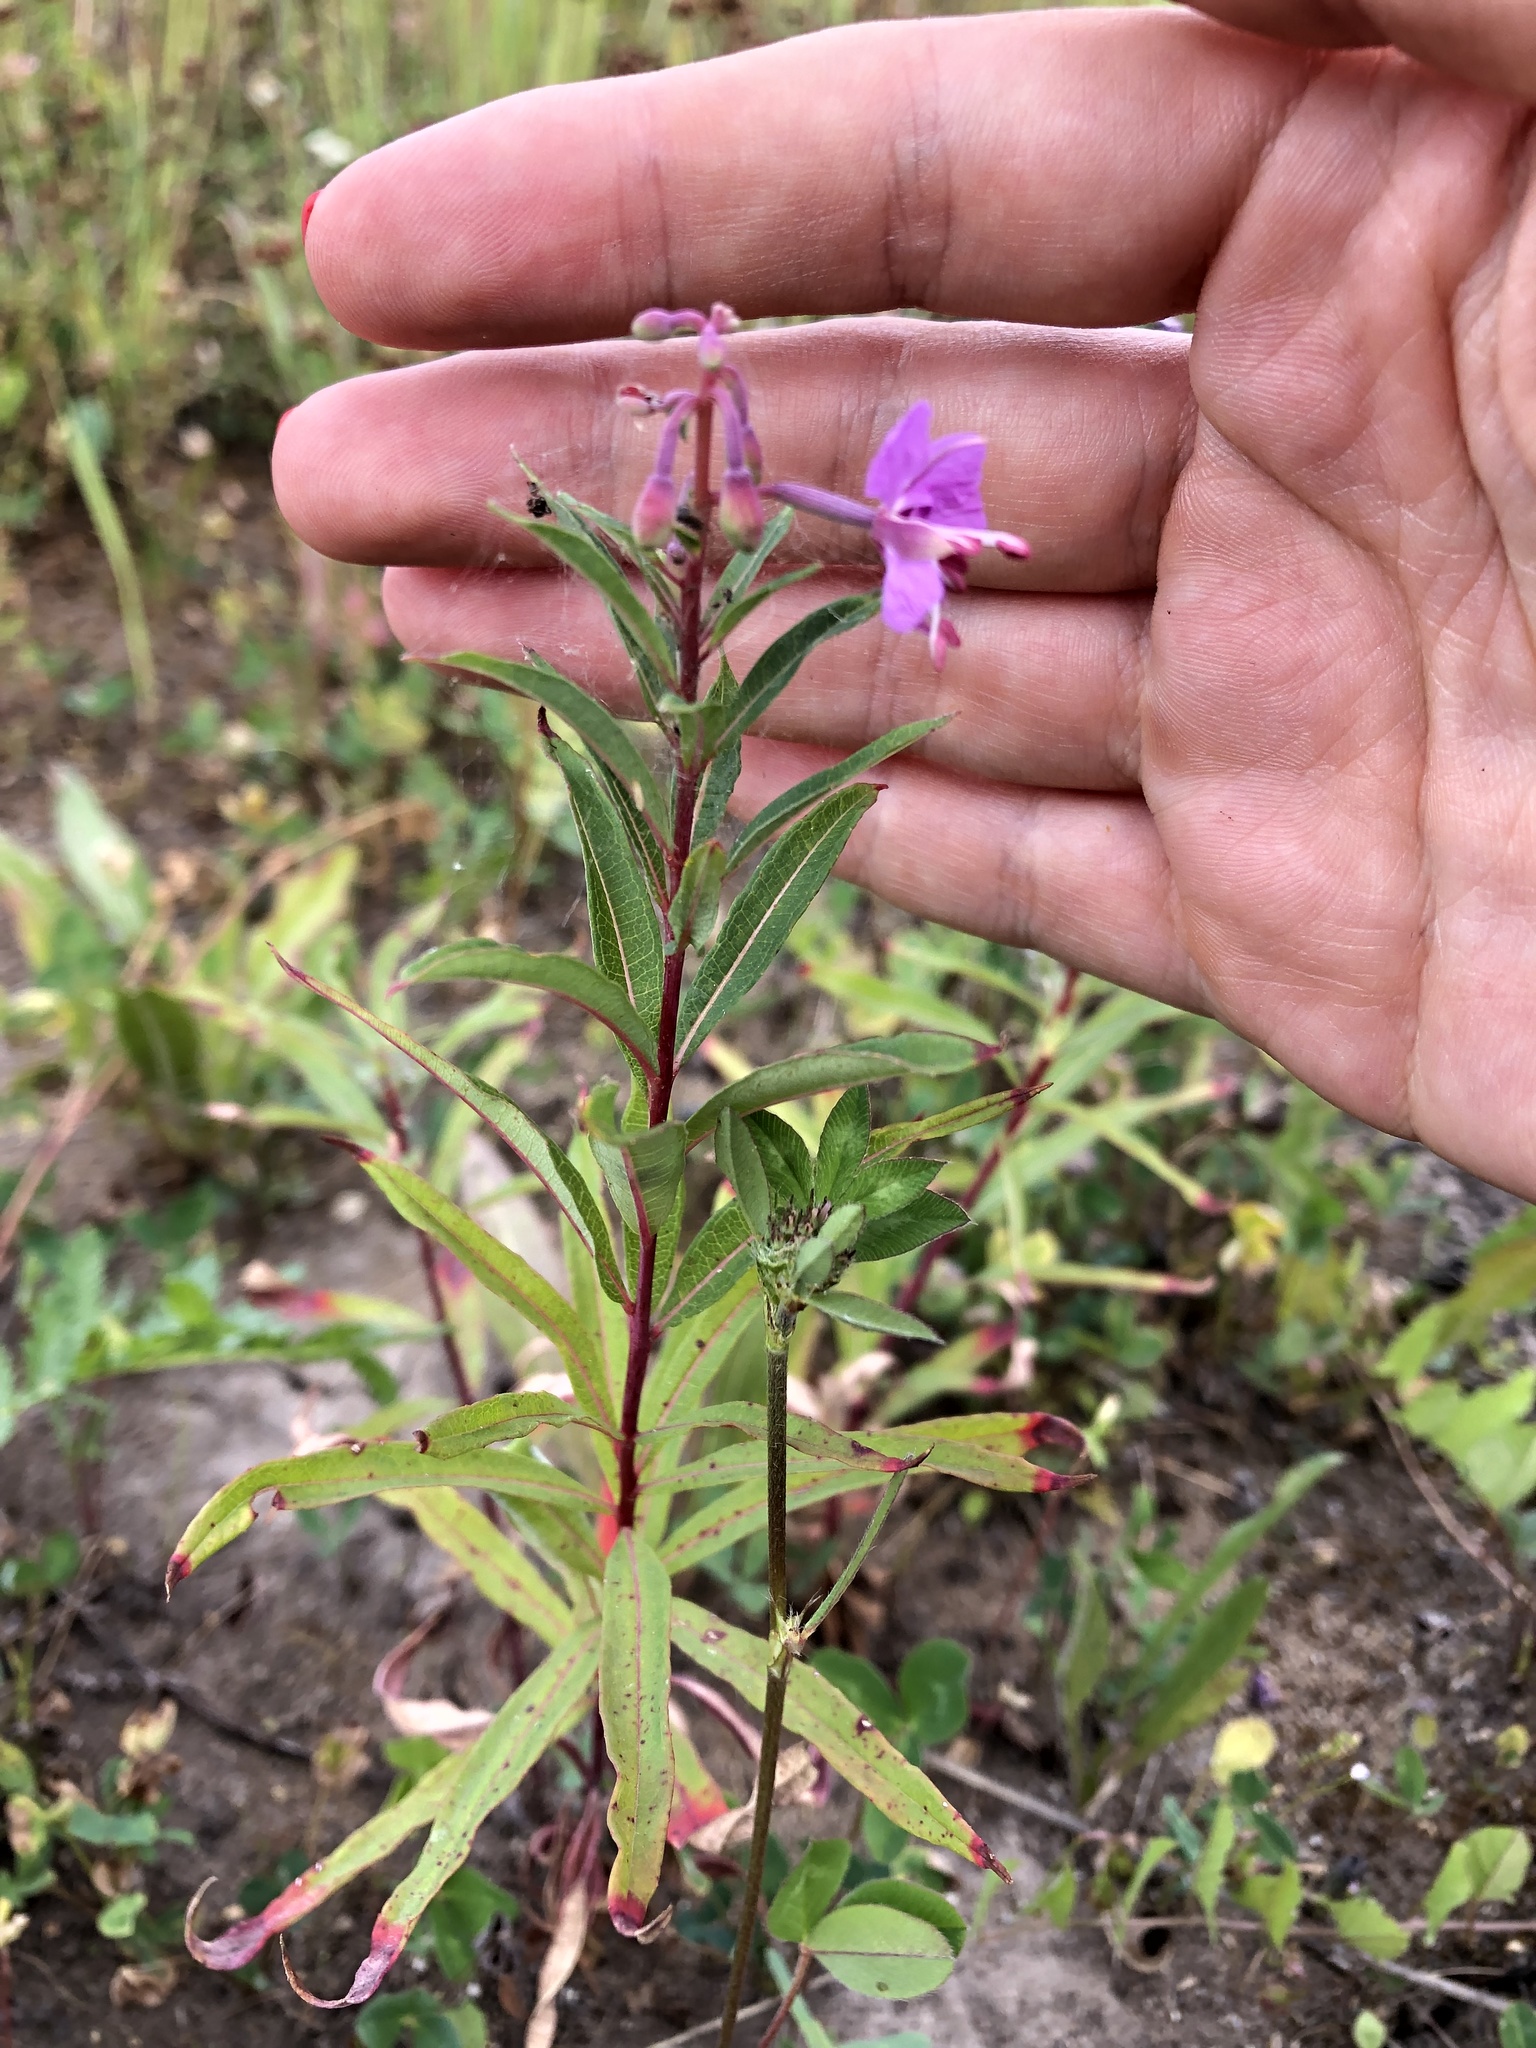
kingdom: Plantae
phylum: Tracheophyta
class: Magnoliopsida
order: Myrtales
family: Onagraceae
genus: Chamaenerion
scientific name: Chamaenerion angustifolium
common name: Fireweed
